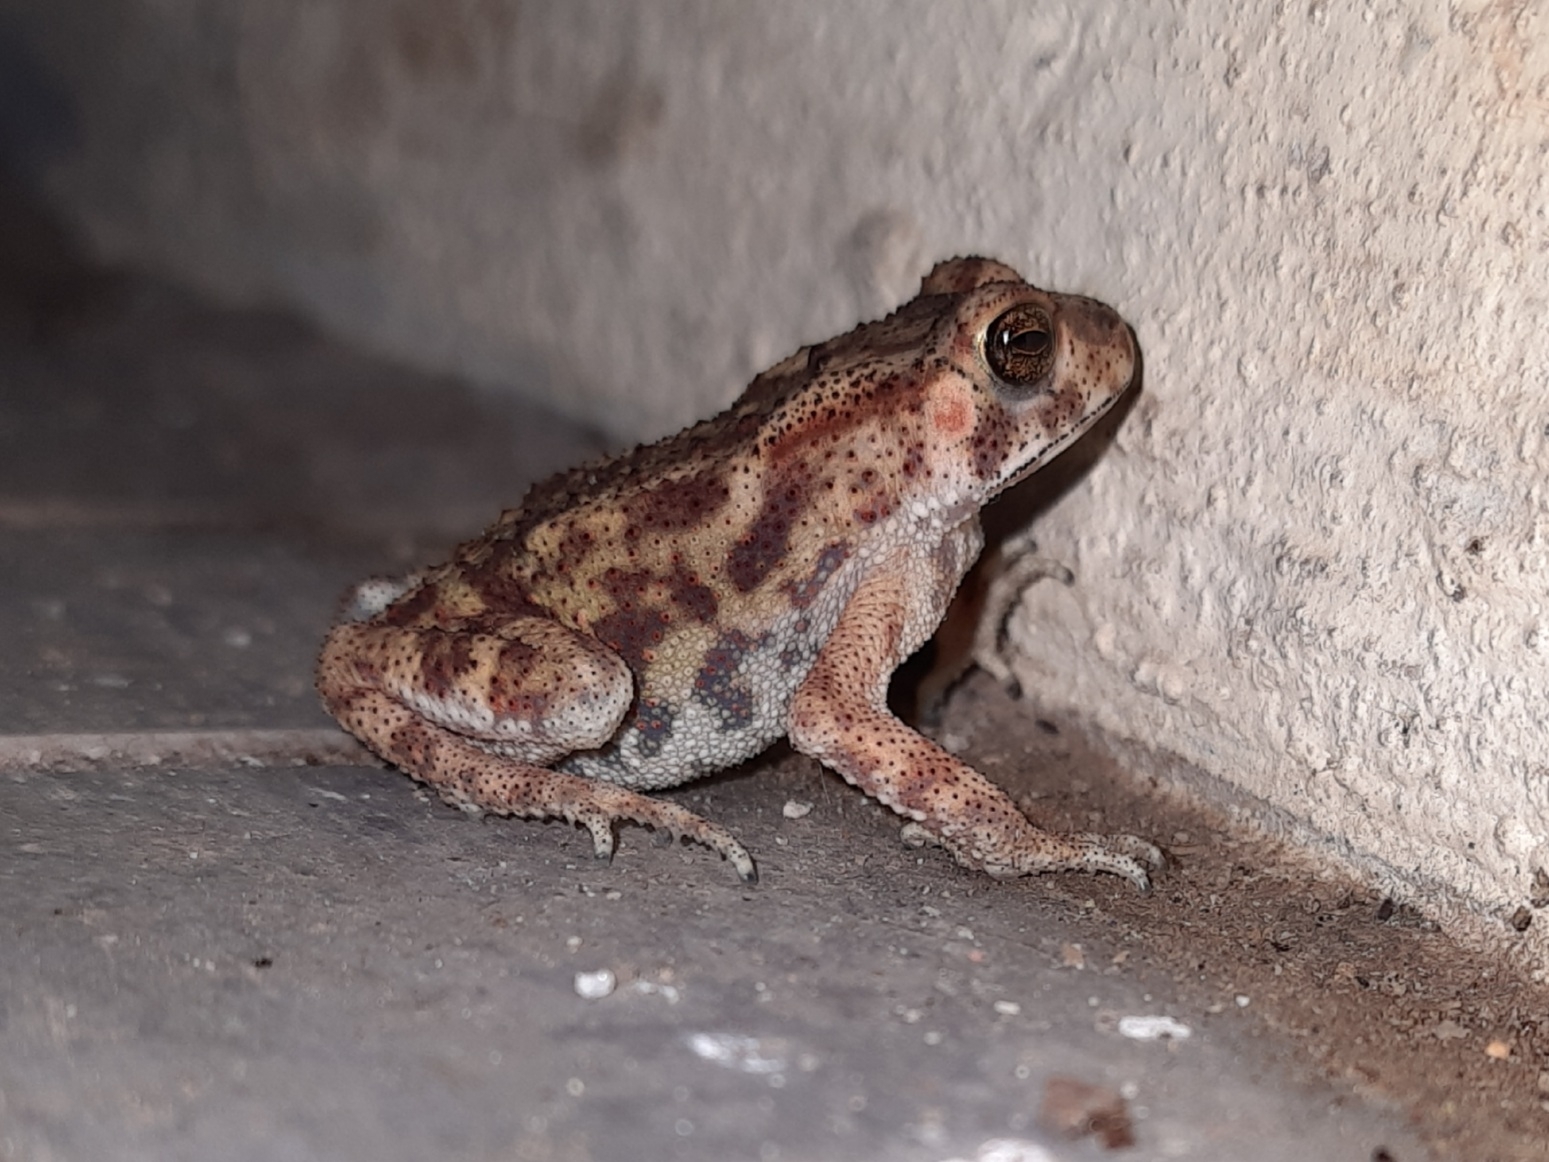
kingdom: Animalia
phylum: Chordata
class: Amphibia
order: Anura
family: Bufonidae
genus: Duttaphrynus
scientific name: Duttaphrynus melanostictus
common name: Common sunda toad
